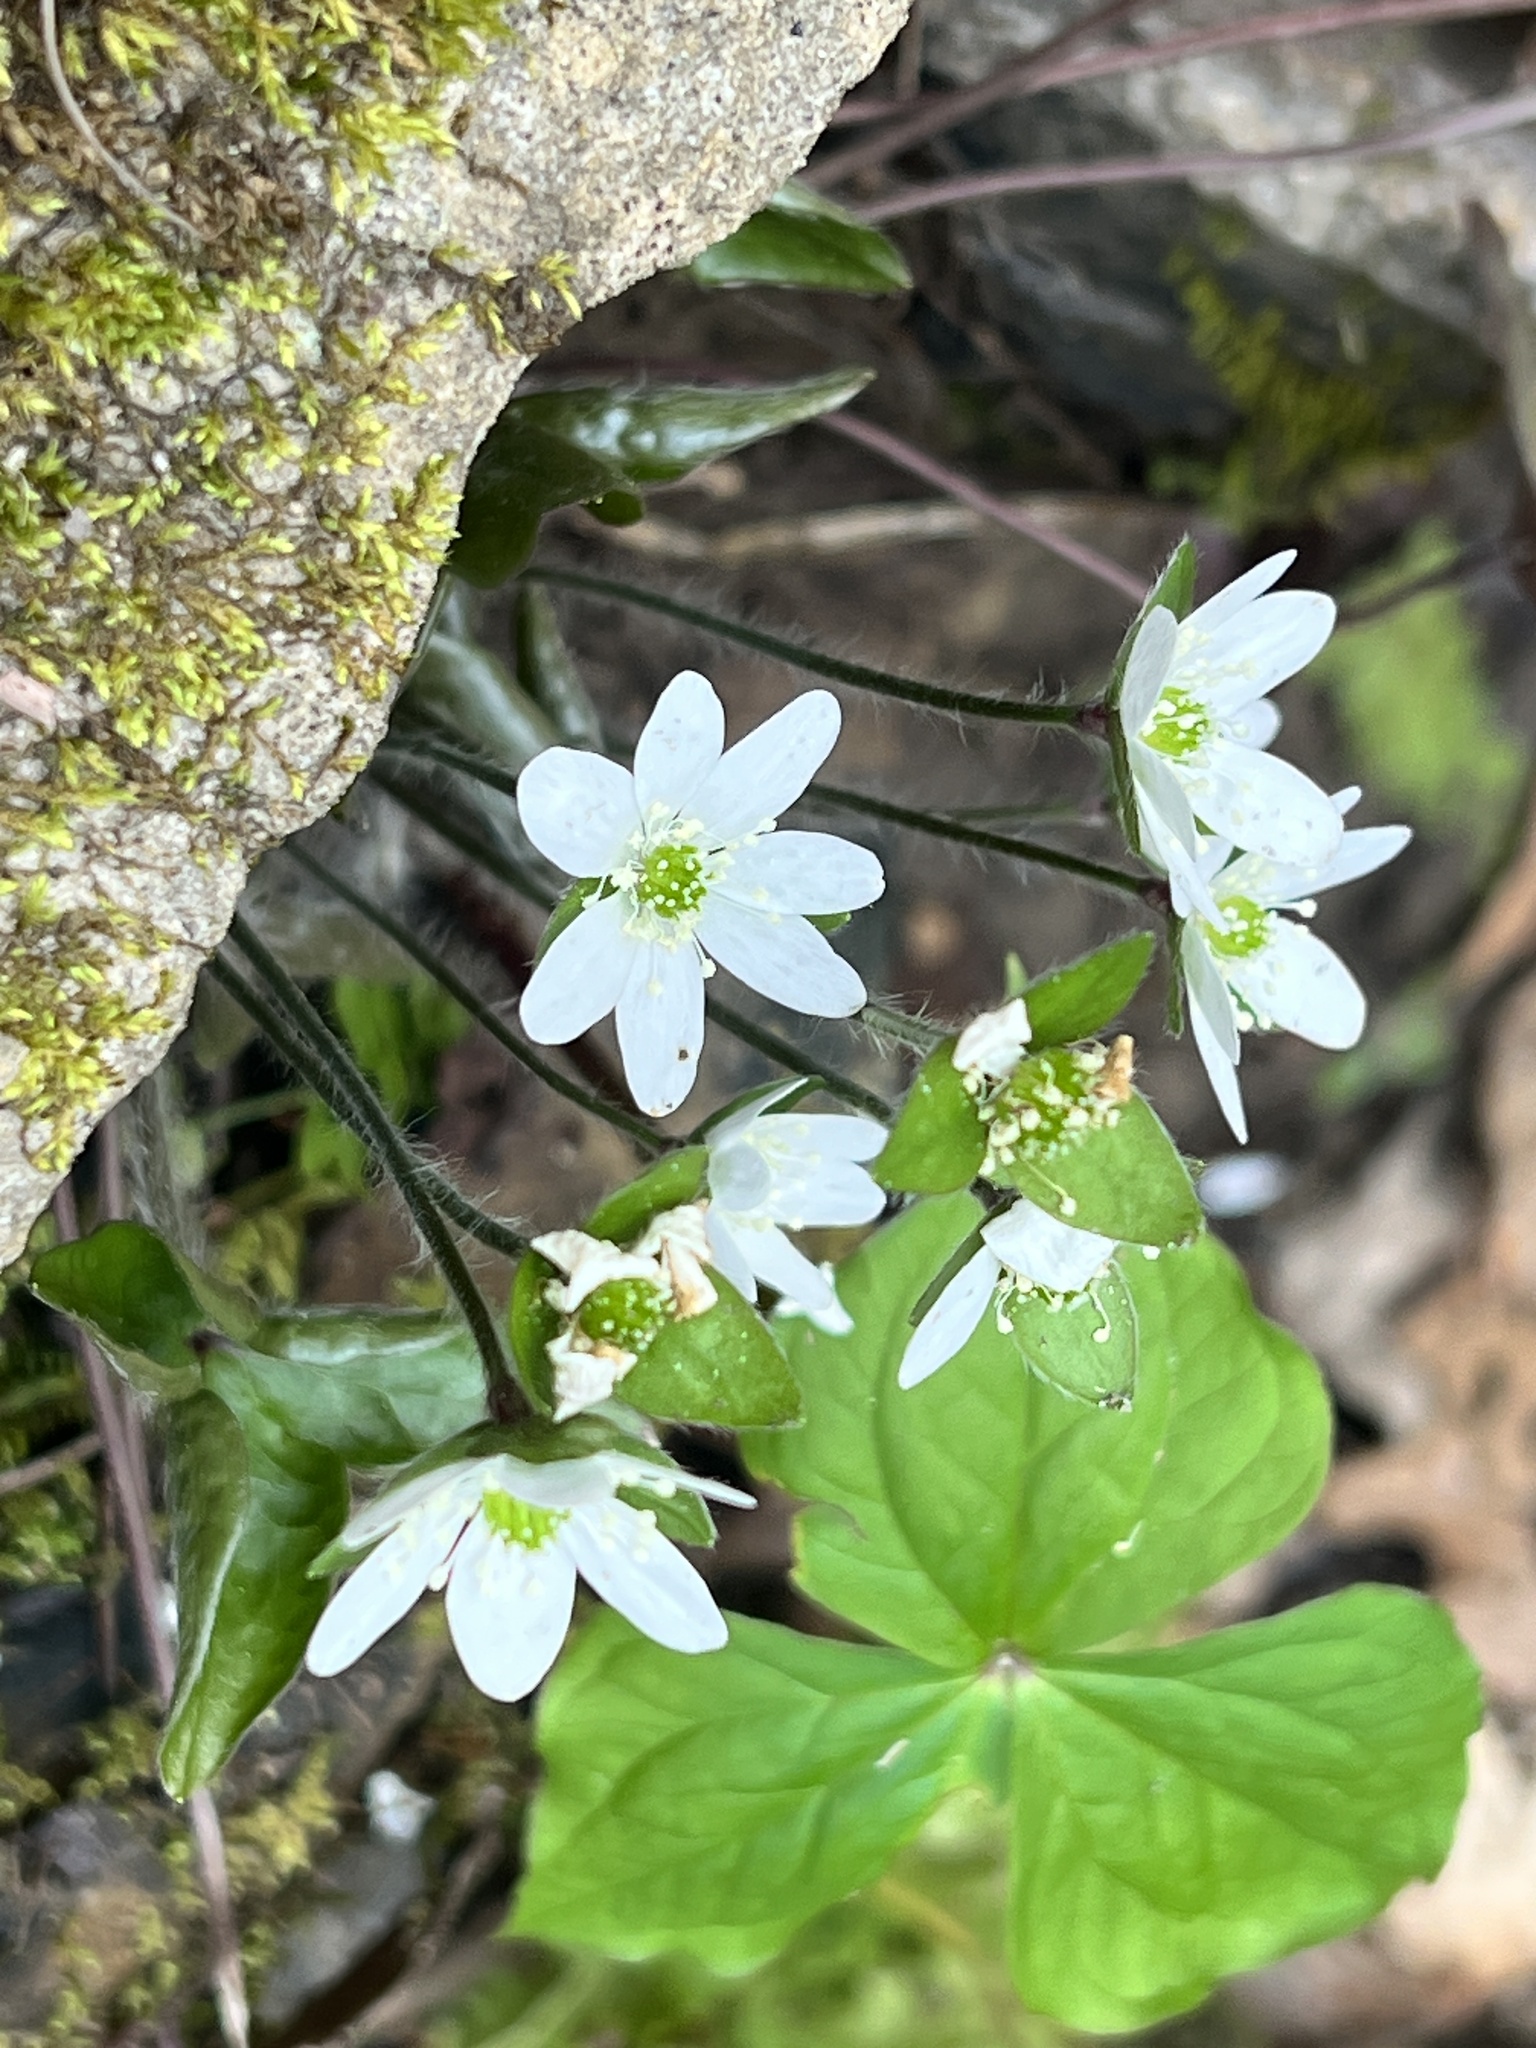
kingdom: Plantae
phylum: Tracheophyta
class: Magnoliopsida
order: Ranunculales
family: Ranunculaceae
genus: Hepatica
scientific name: Hepatica acutiloba
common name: Sharp-lobed hepatica
